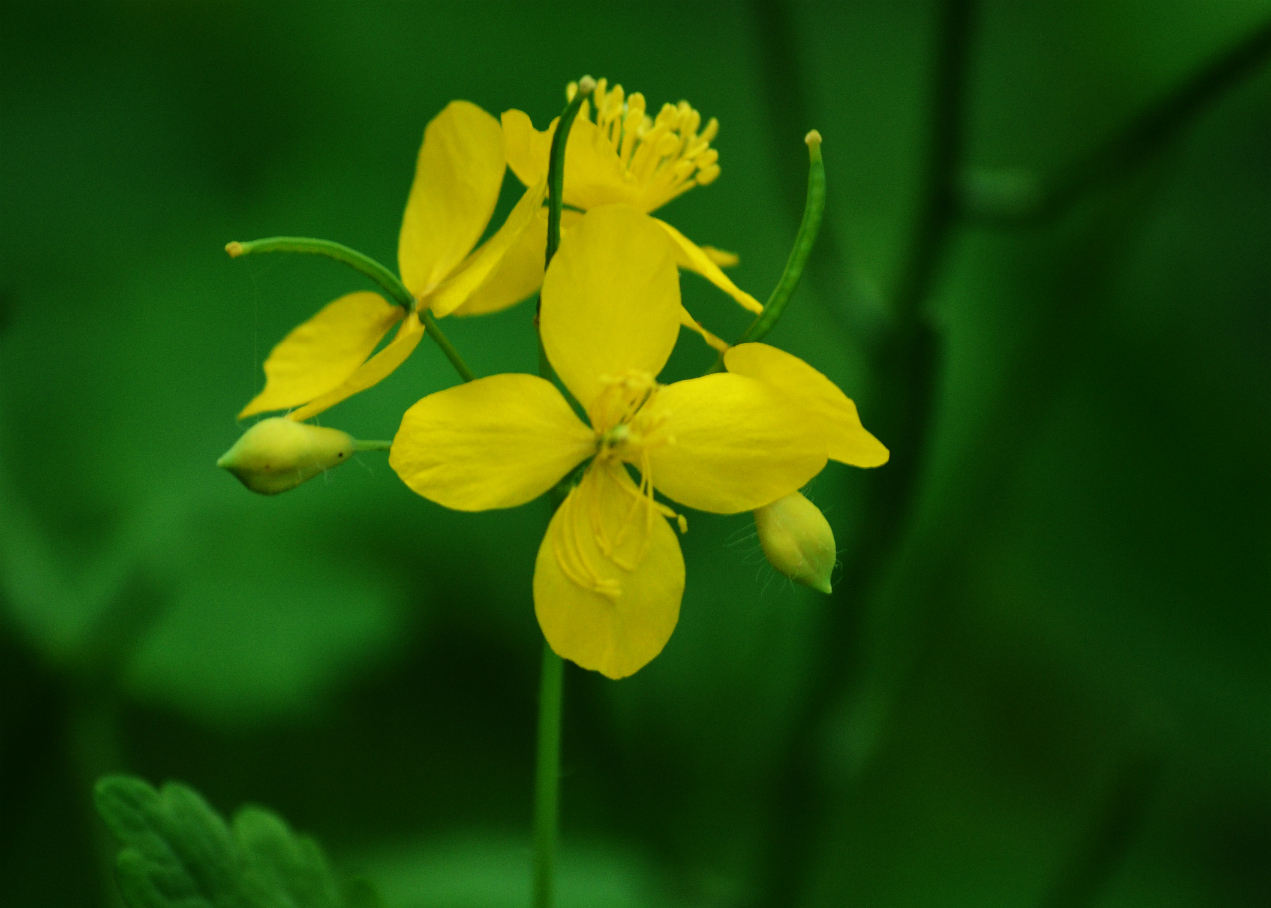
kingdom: Plantae
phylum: Tracheophyta
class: Magnoliopsida
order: Ranunculales
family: Papaveraceae
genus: Chelidonium
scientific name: Chelidonium majus
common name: Greater celandine
